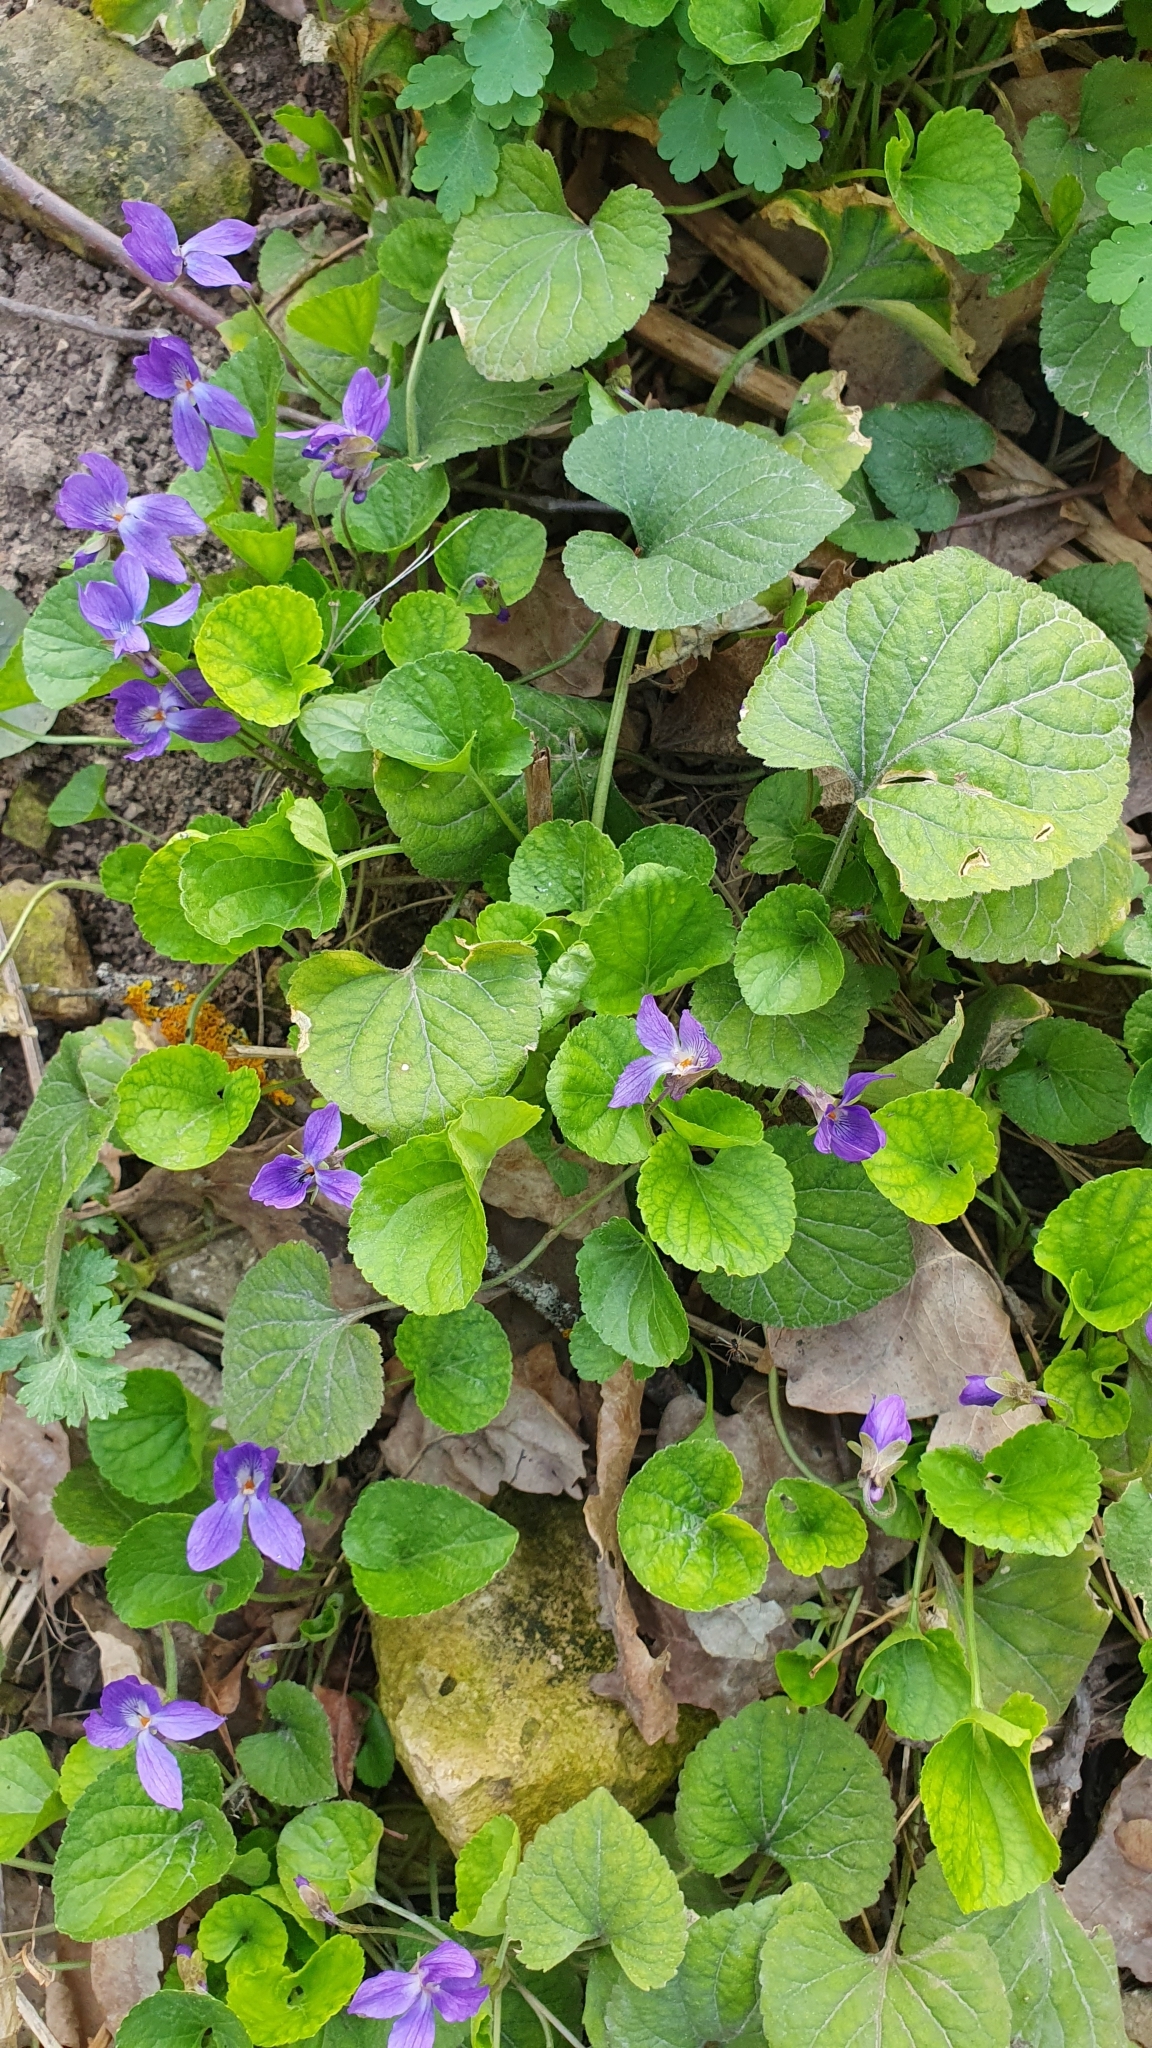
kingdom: Plantae
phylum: Tracheophyta
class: Magnoliopsida
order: Malpighiales
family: Violaceae
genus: Viola
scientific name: Viola odorata
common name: Sweet violet
